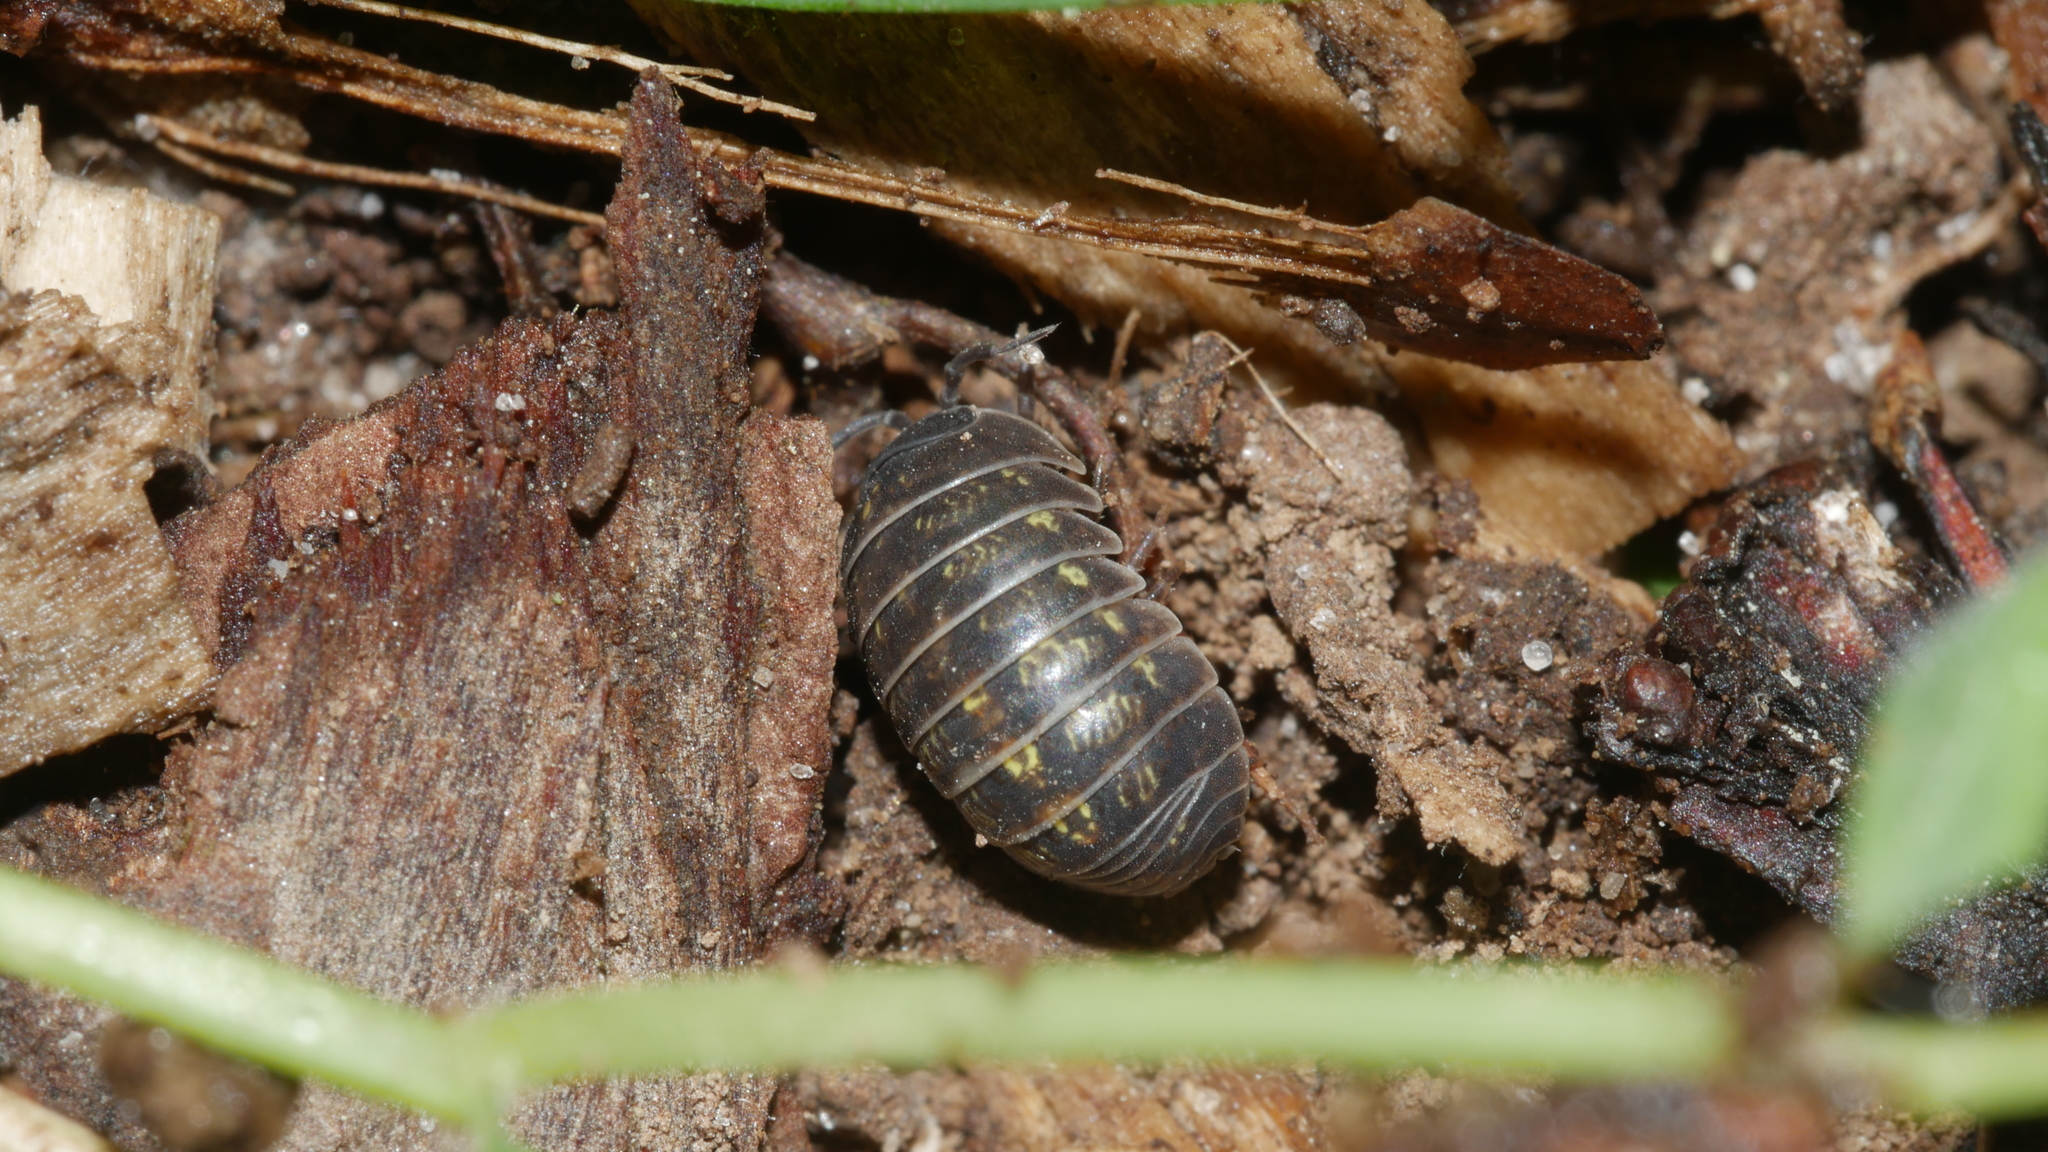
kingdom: Animalia
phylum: Arthropoda
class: Malacostraca
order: Isopoda
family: Armadillidiidae
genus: Armadillidium
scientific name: Armadillidium vulgare
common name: Common pill woodlouse
